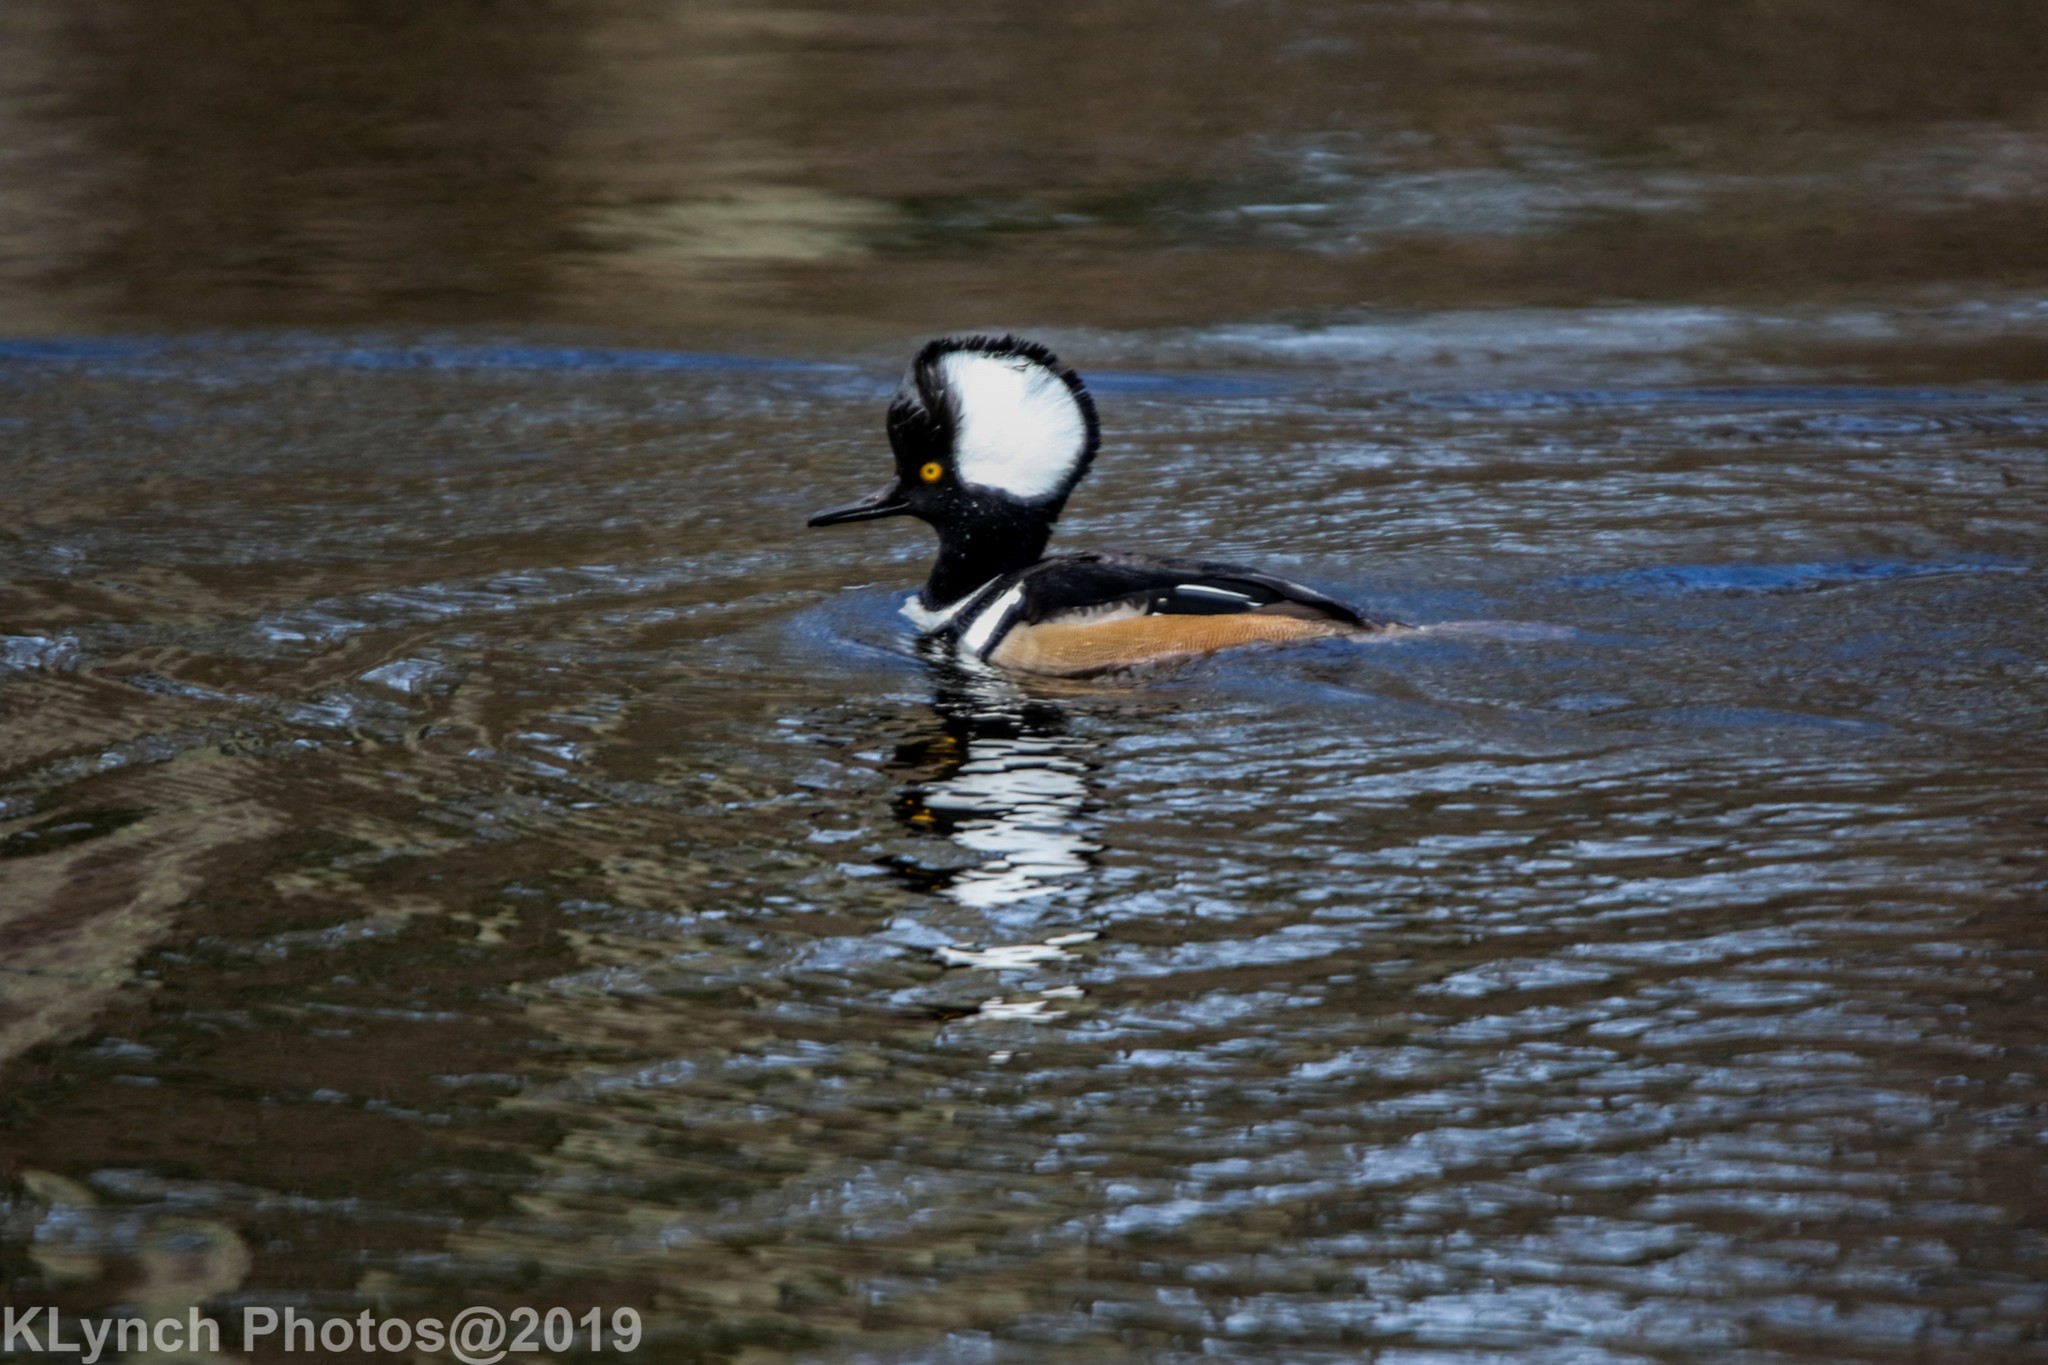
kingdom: Animalia
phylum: Chordata
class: Aves
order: Anseriformes
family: Anatidae
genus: Lophodytes
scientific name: Lophodytes cucullatus
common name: Hooded merganser
